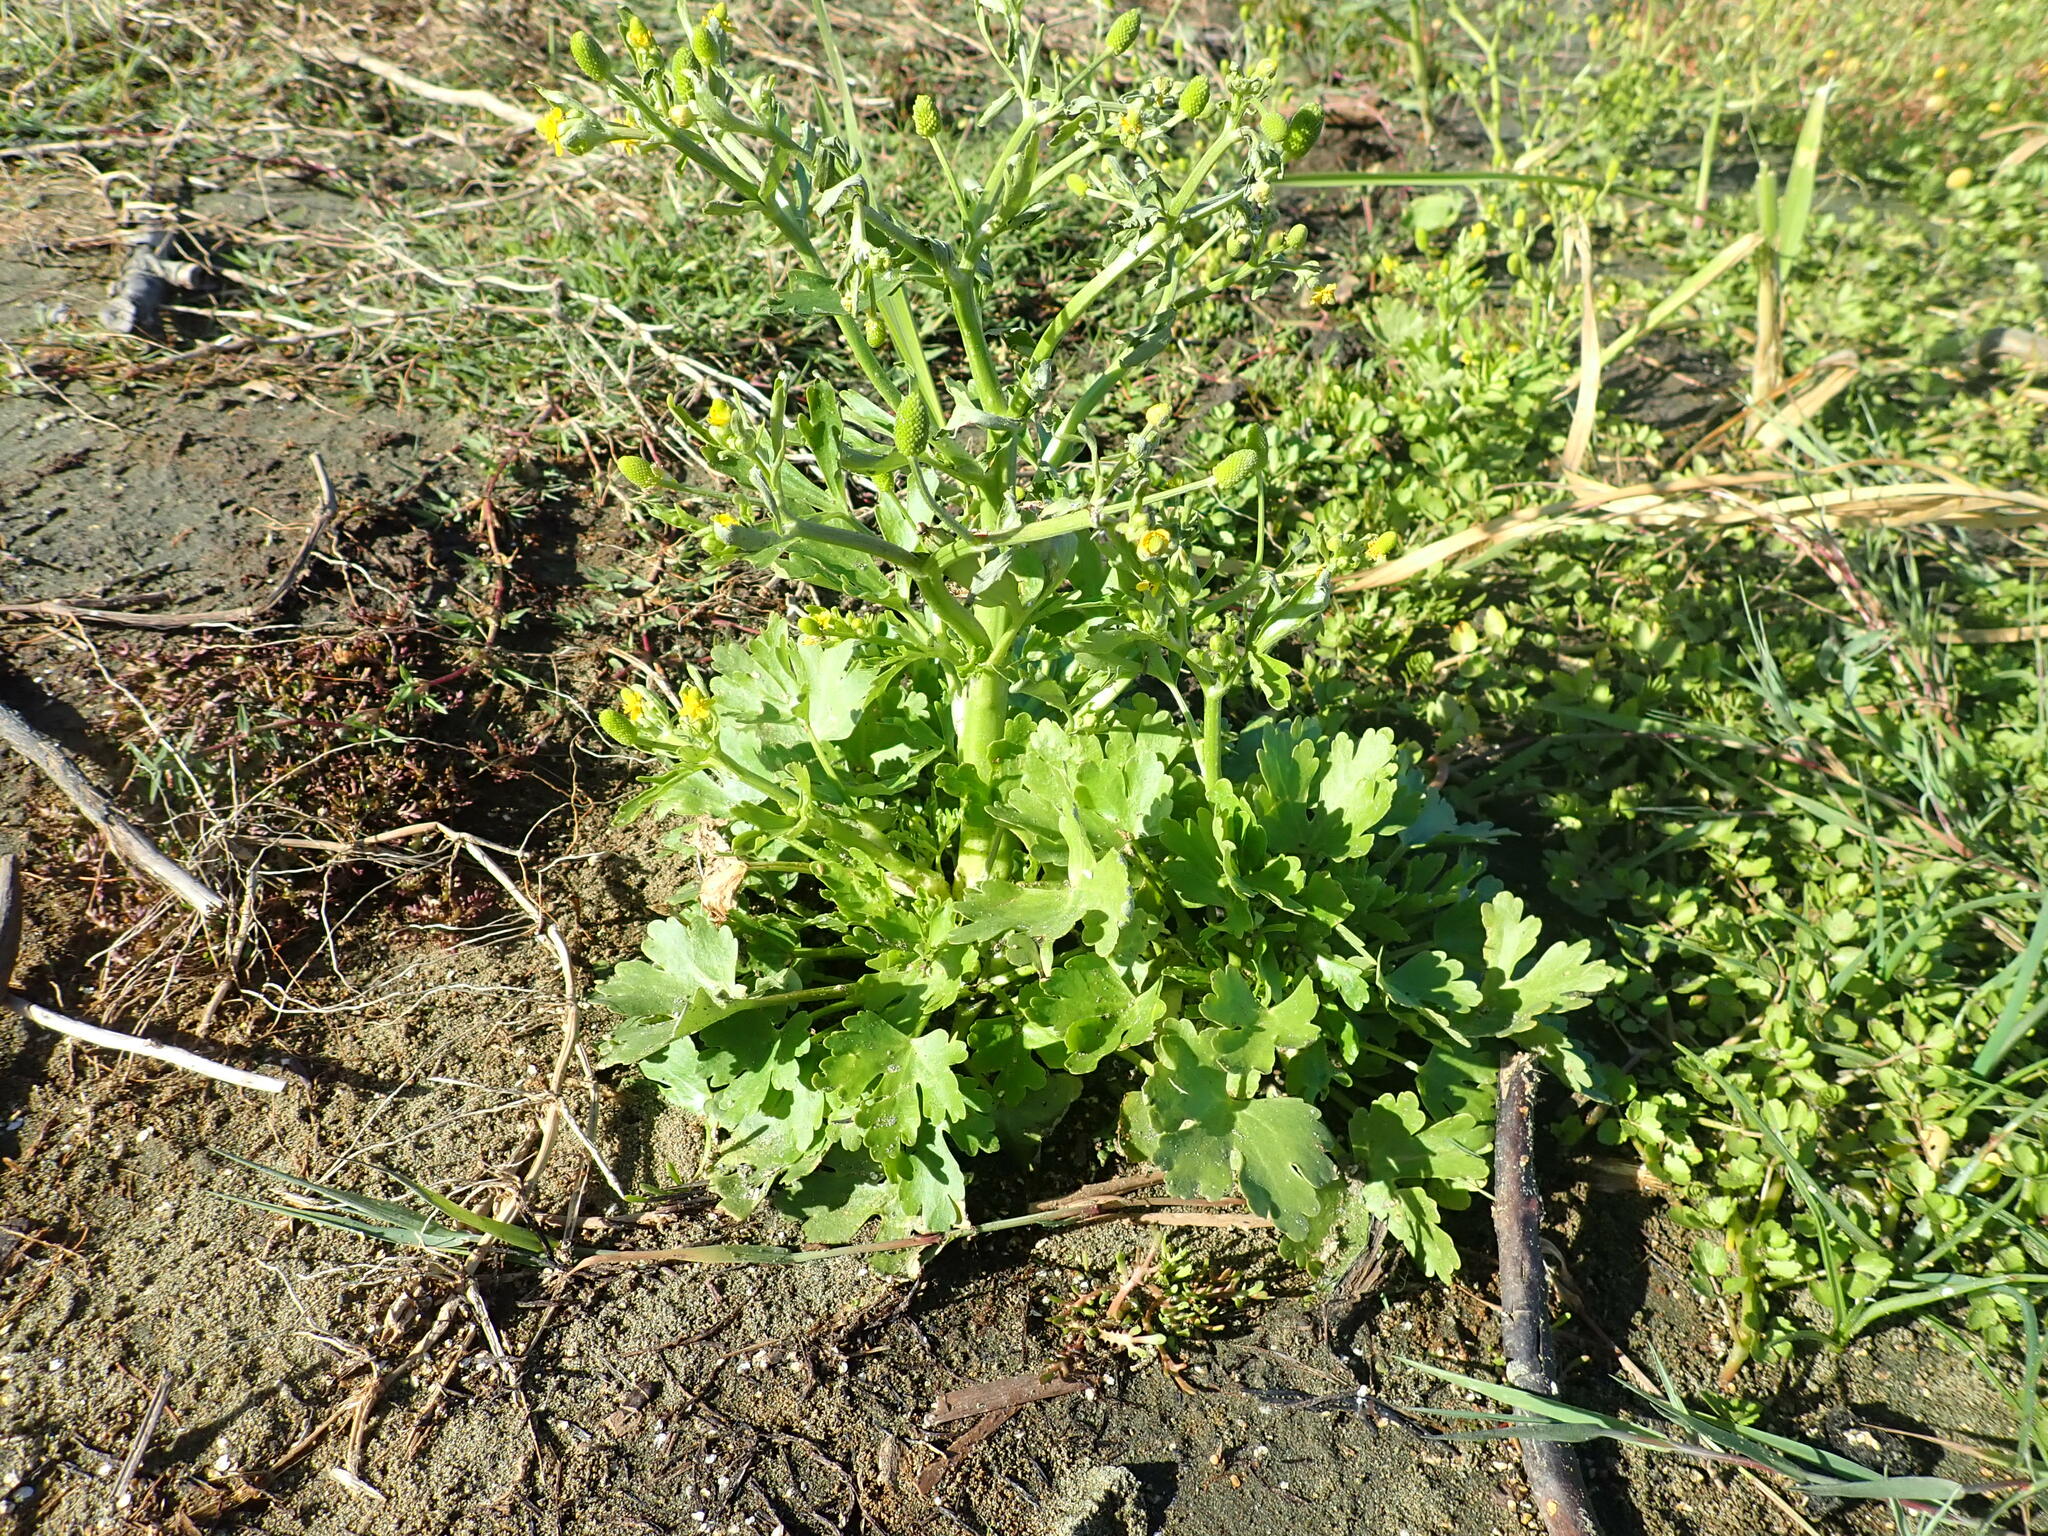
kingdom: Plantae
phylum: Tracheophyta
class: Magnoliopsida
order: Ranunculales
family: Ranunculaceae
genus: Ranunculus
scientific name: Ranunculus sceleratus
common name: Celery-leaved buttercup
